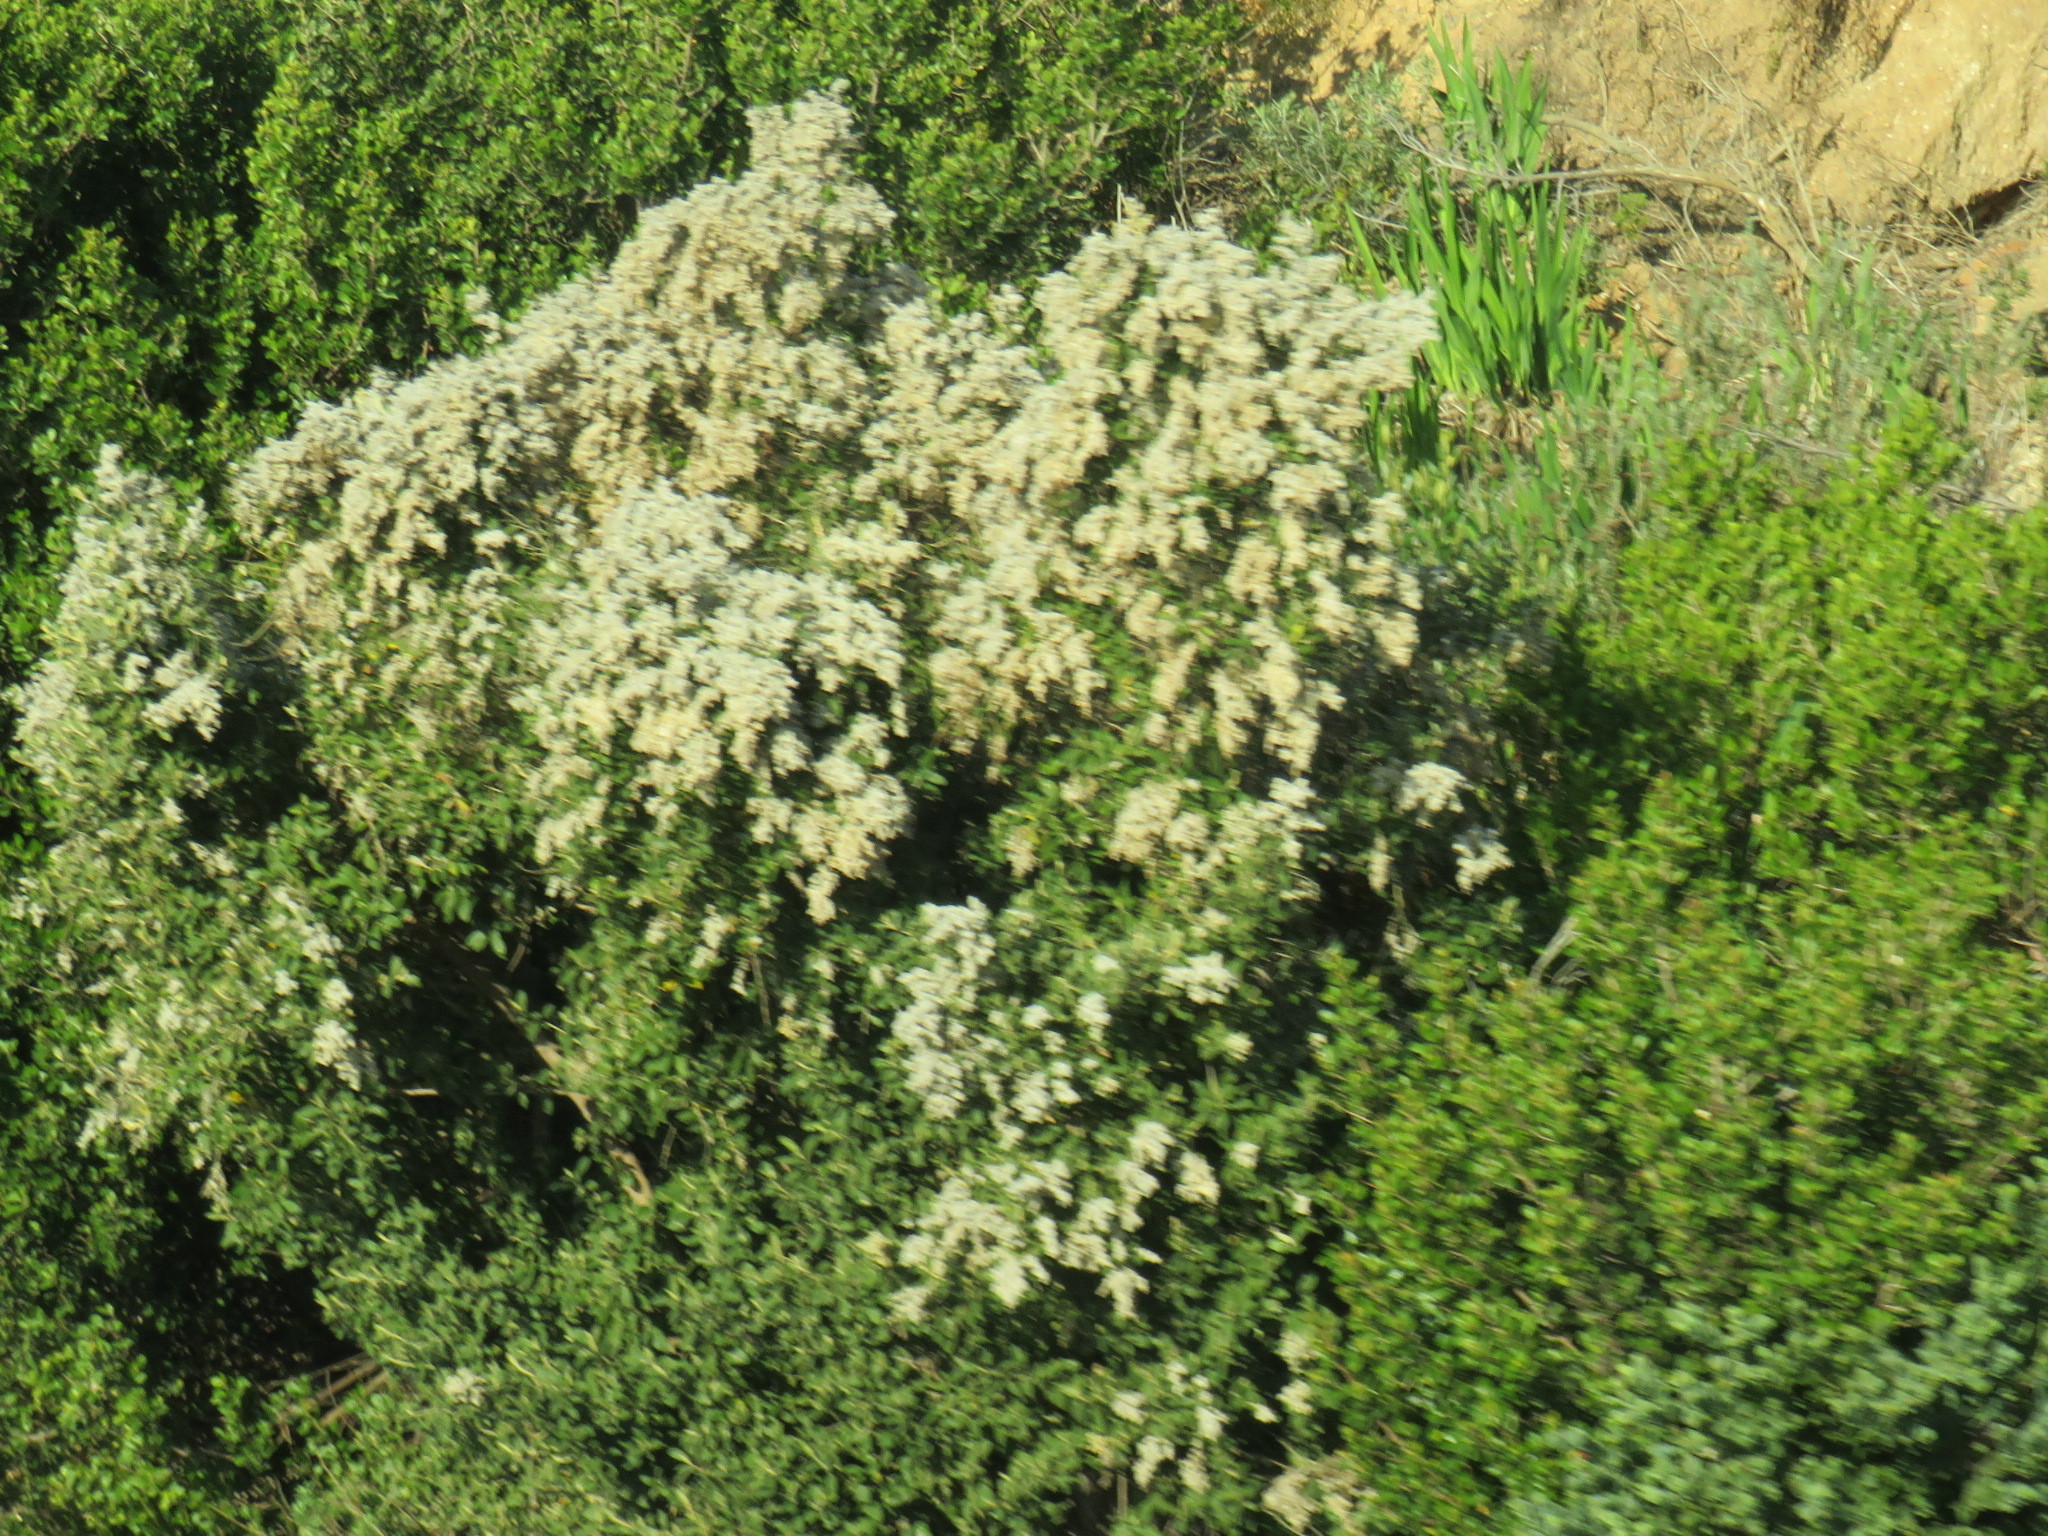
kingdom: Plantae
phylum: Tracheophyta
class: Magnoliopsida
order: Asterales
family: Asteraceae
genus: Tarchonanthus
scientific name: Tarchonanthus littoralis
